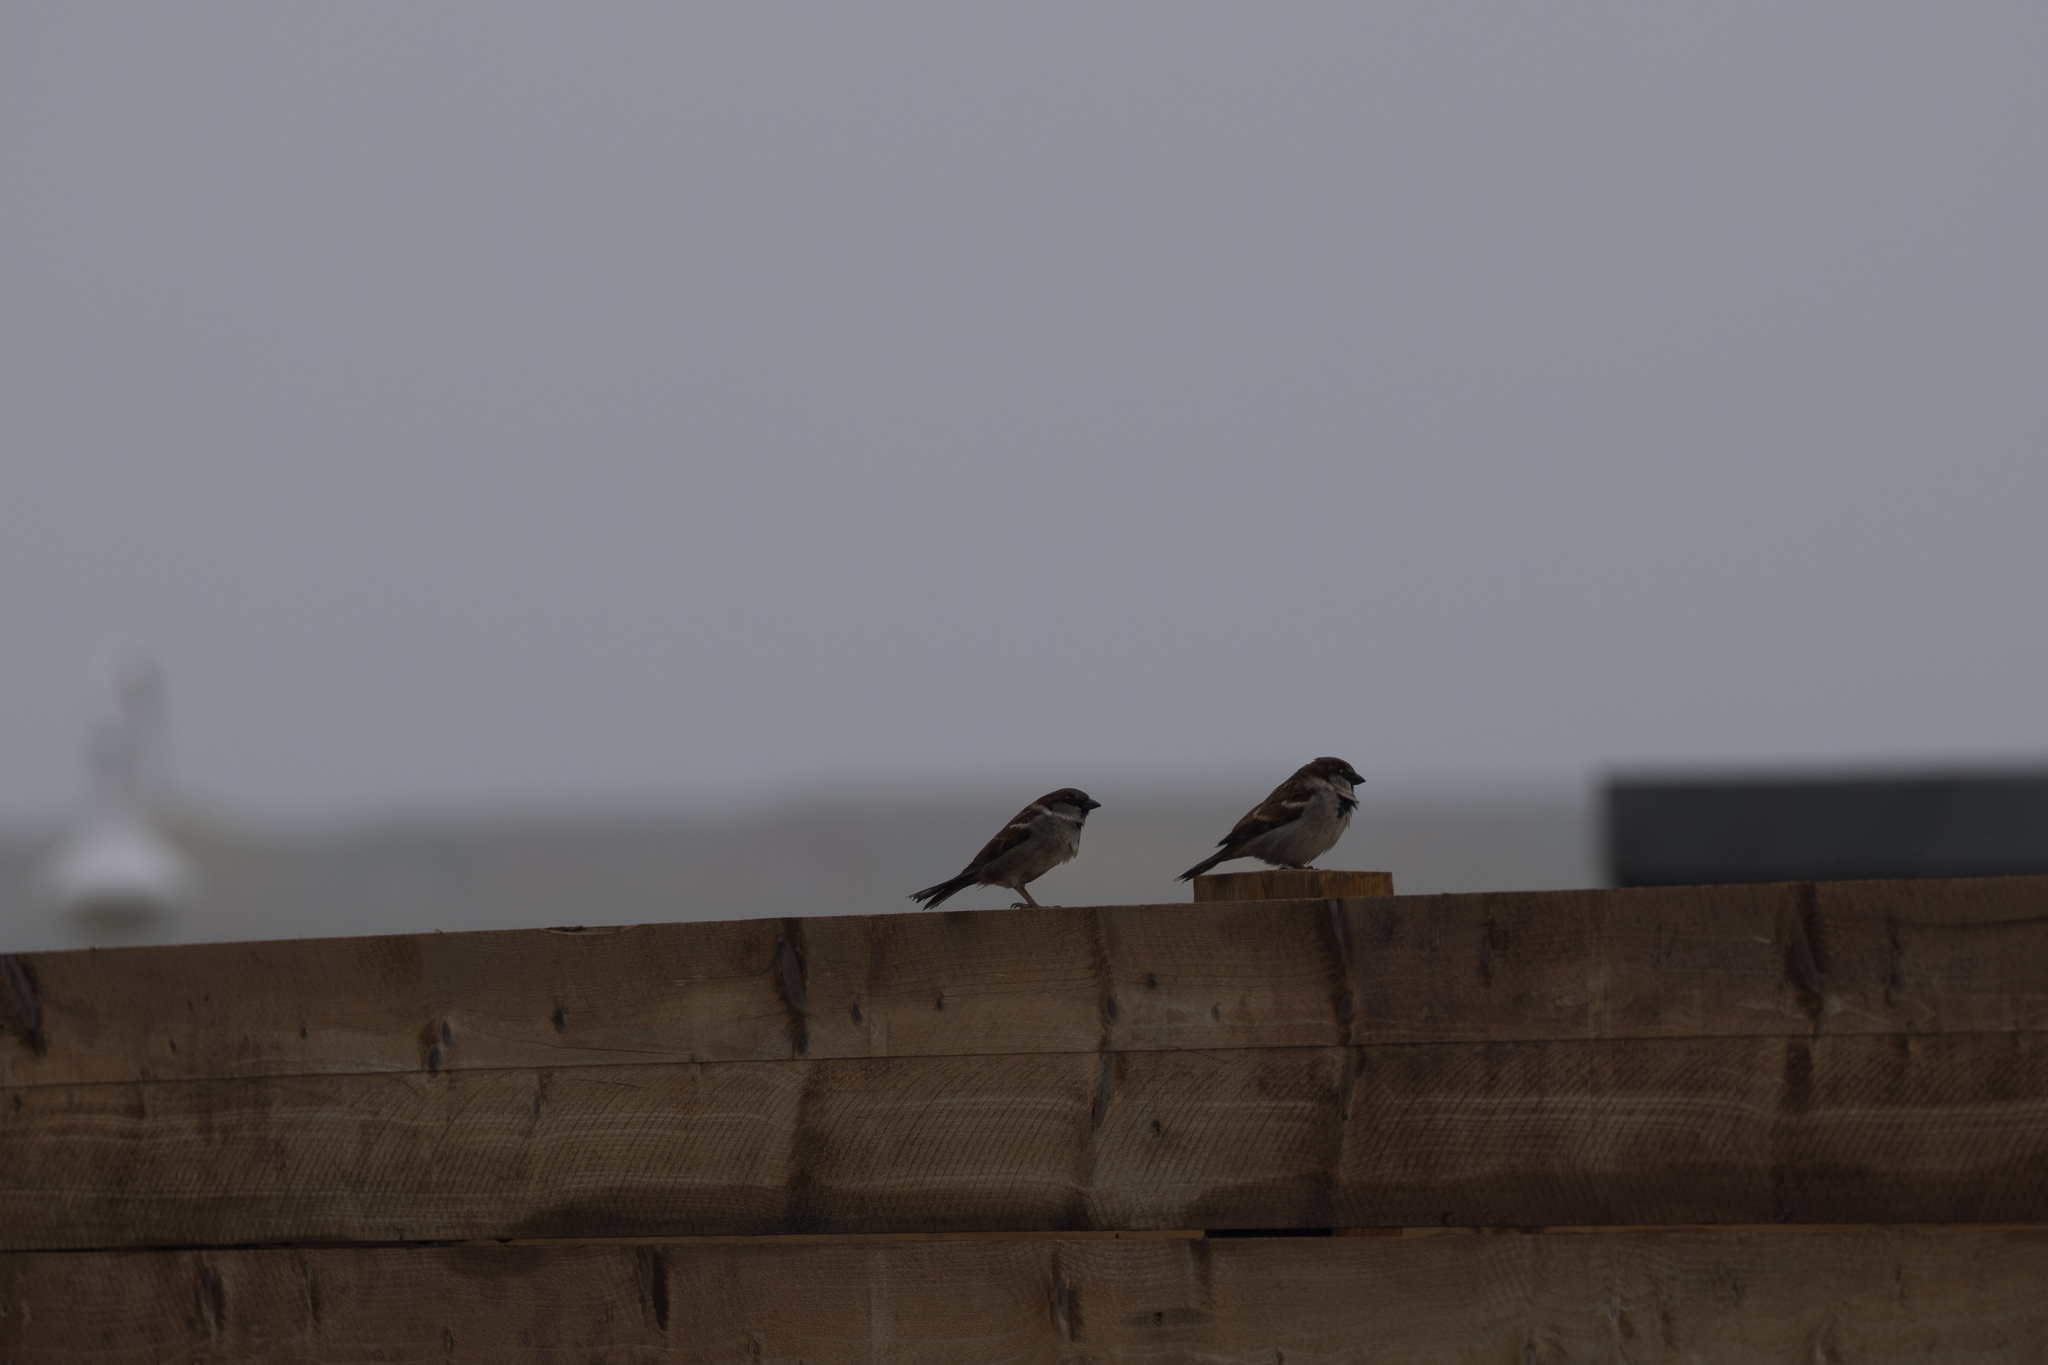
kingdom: Animalia
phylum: Chordata
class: Aves
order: Passeriformes
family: Passeridae
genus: Passer
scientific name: Passer domesticus
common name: House sparrow
